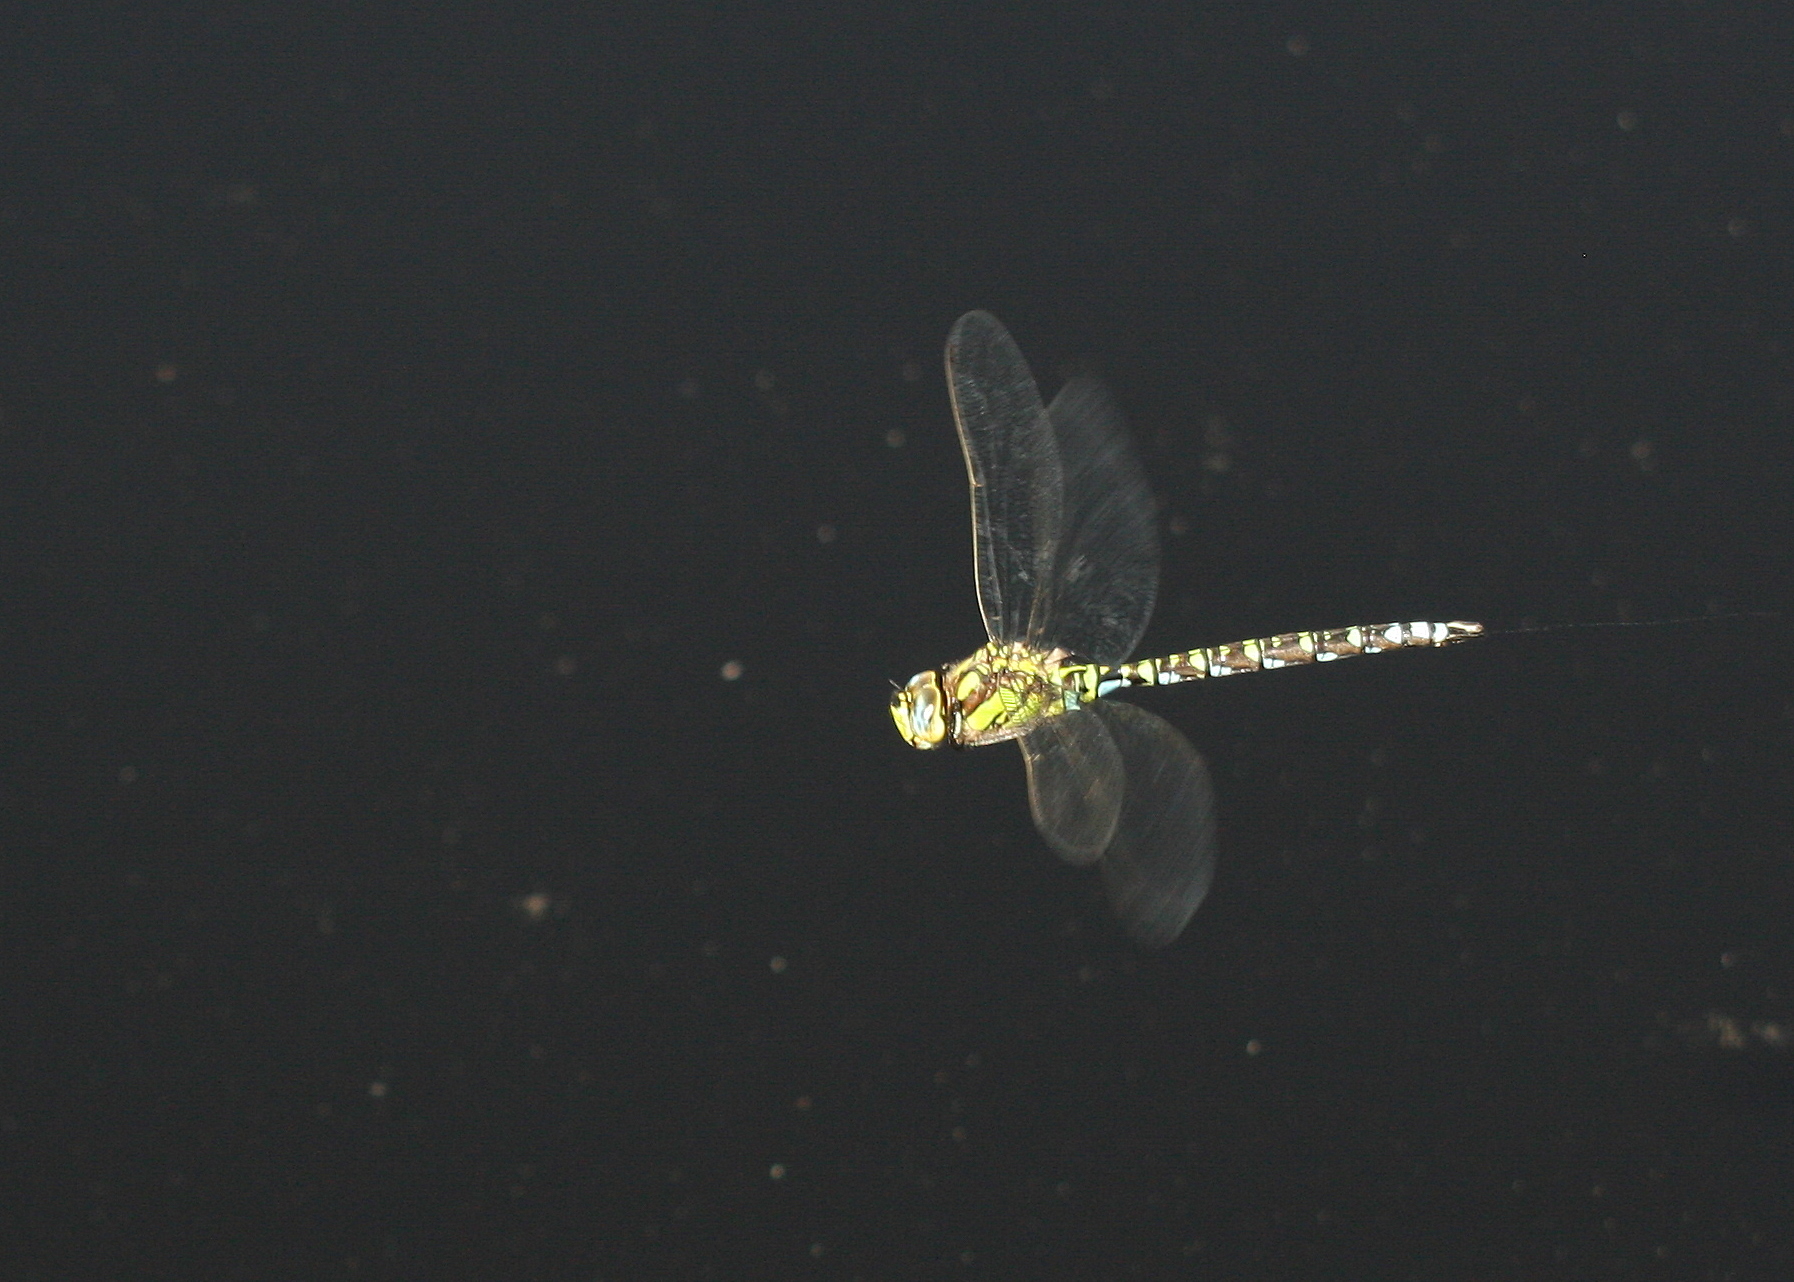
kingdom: Animalia
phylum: Arthropoda
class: Insecta
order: Odonata
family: Aeshnidae
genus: Aeshna
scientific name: Aeshna cyanea
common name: Southern hawker
